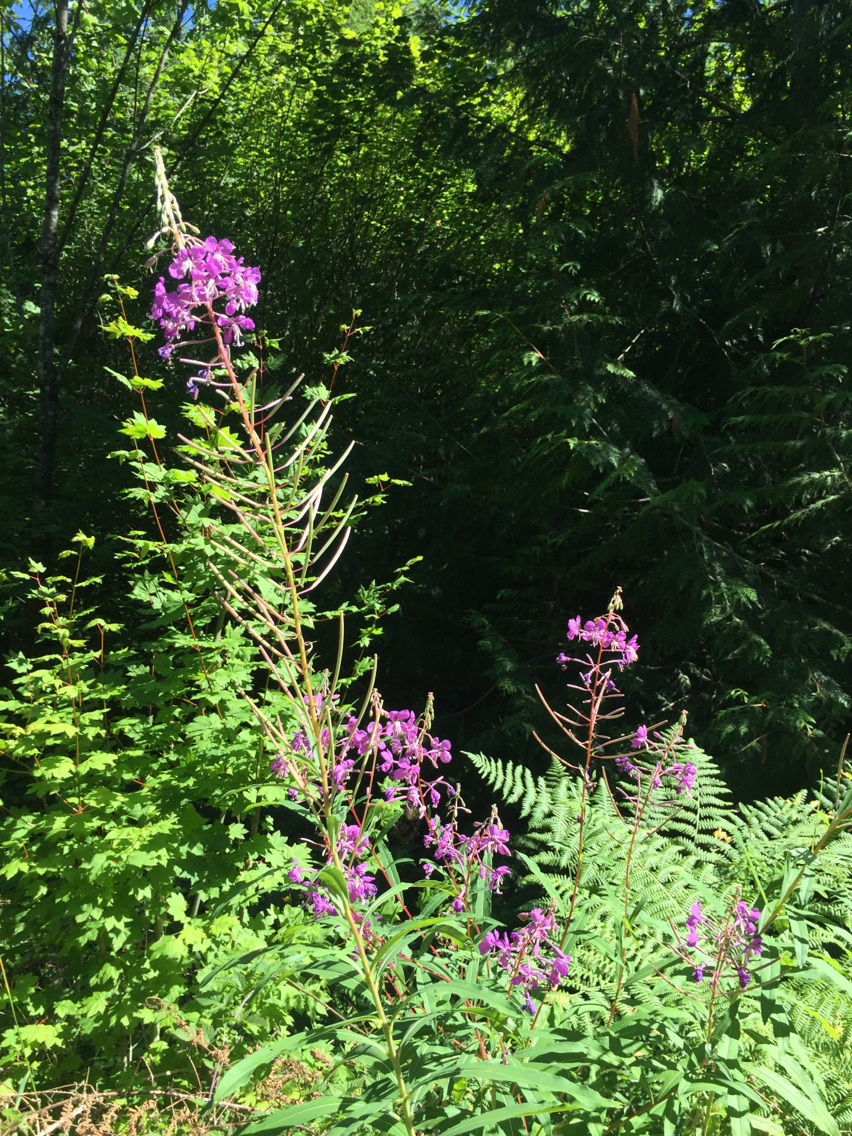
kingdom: Plantae
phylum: Tracheophyta
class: Magnoliopsida
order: Myrtales
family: Onagraceae
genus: Chamaenerion
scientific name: Chamaenerion angustifolium
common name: Fireweed
